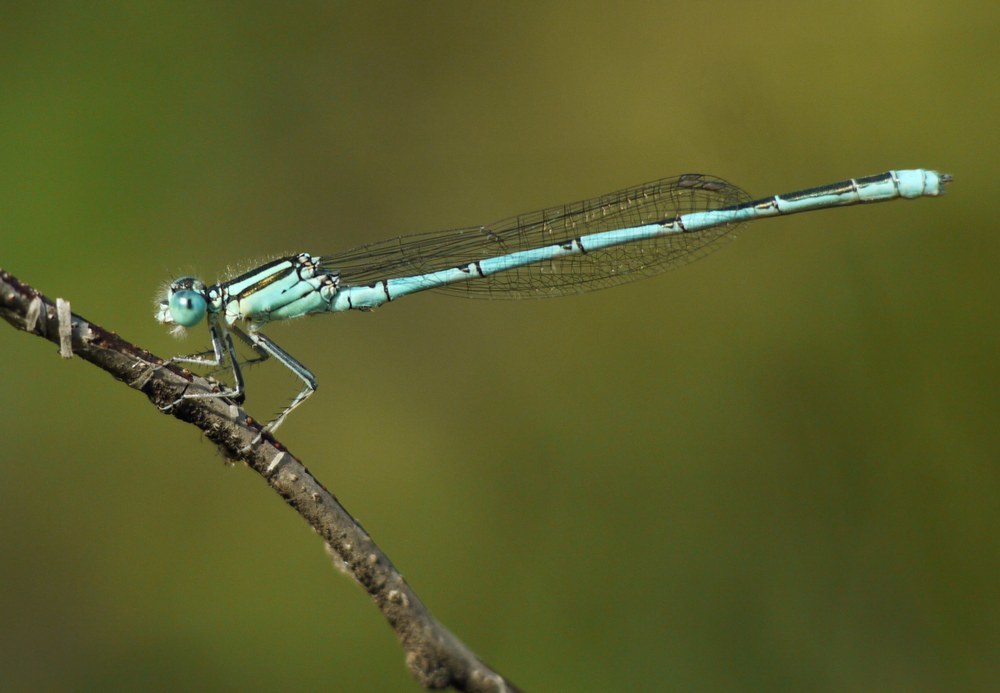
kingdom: Animalia
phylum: Arthropoda
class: Insecta
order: Odonata
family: Coenagrionidae
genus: Erythromma
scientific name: Erythromma lindenii
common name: Blue-eye
